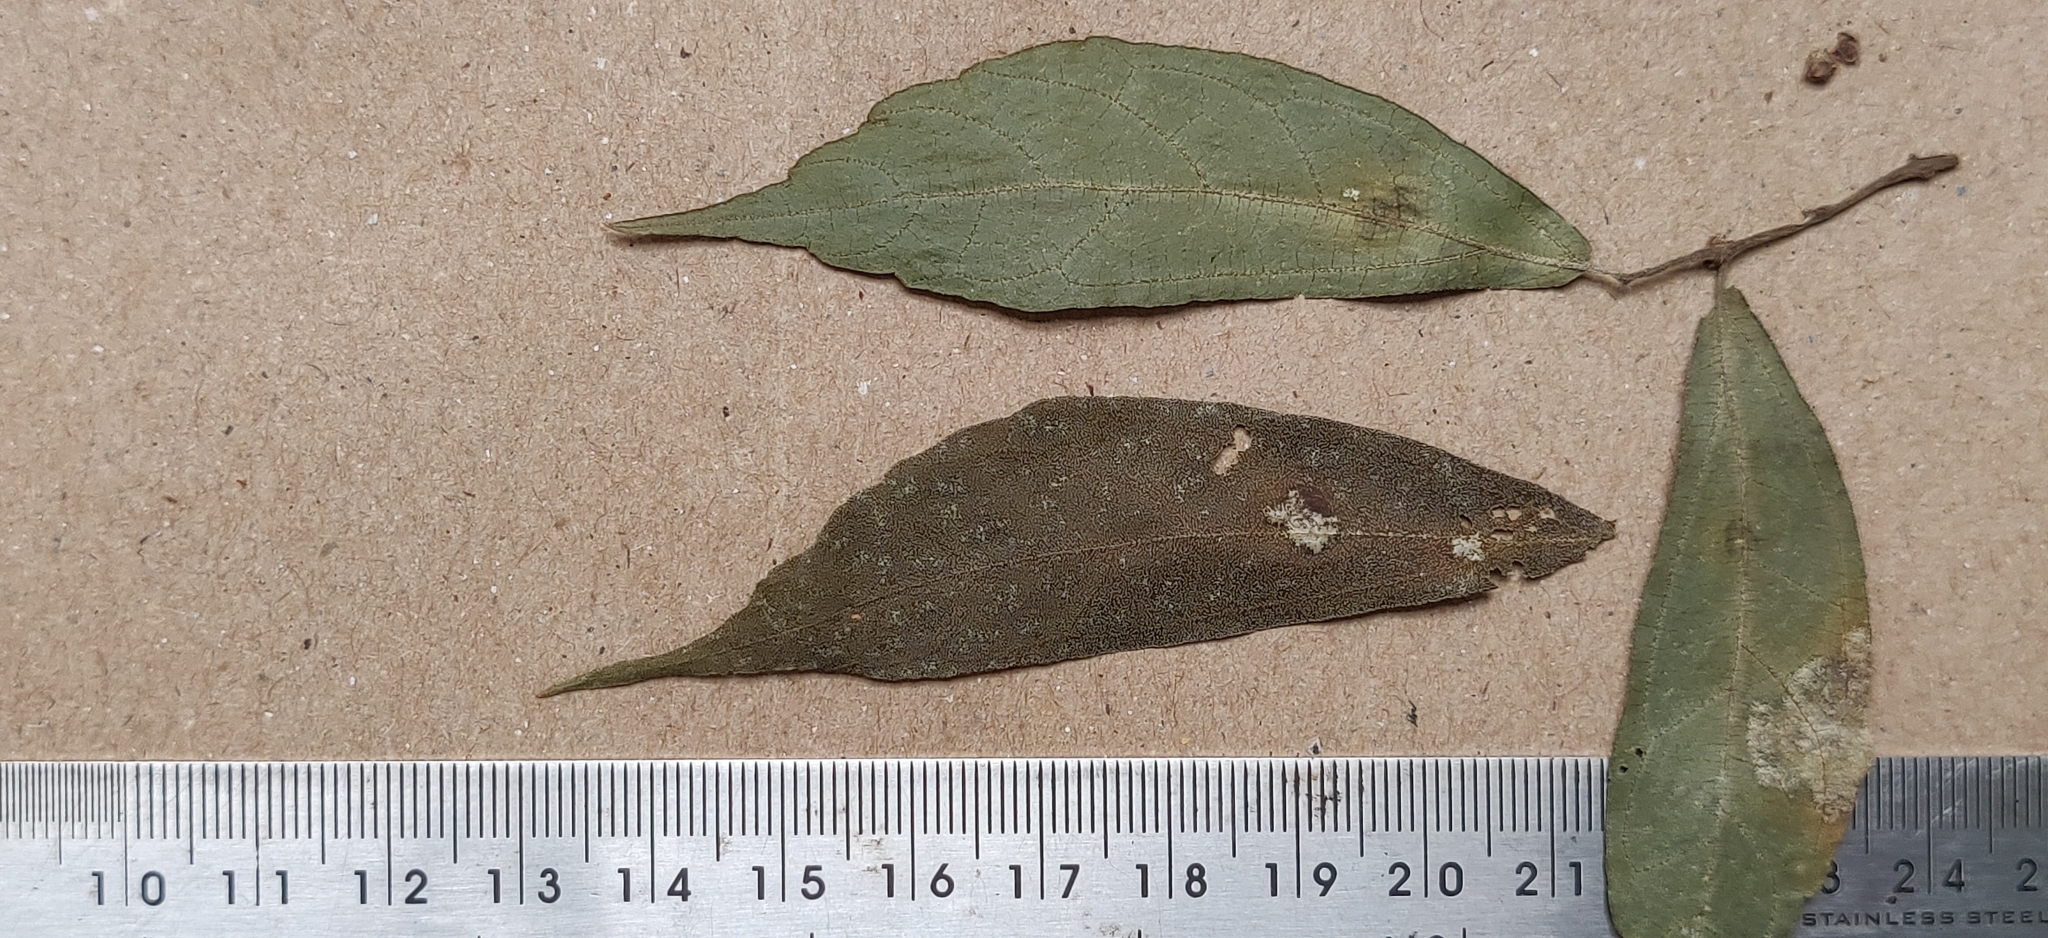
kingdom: Plantae
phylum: Tracheophyta
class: Magnoliopsida
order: Rosales
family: Urticaceae
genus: Elatostema
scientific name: Elatostema lineolatum
